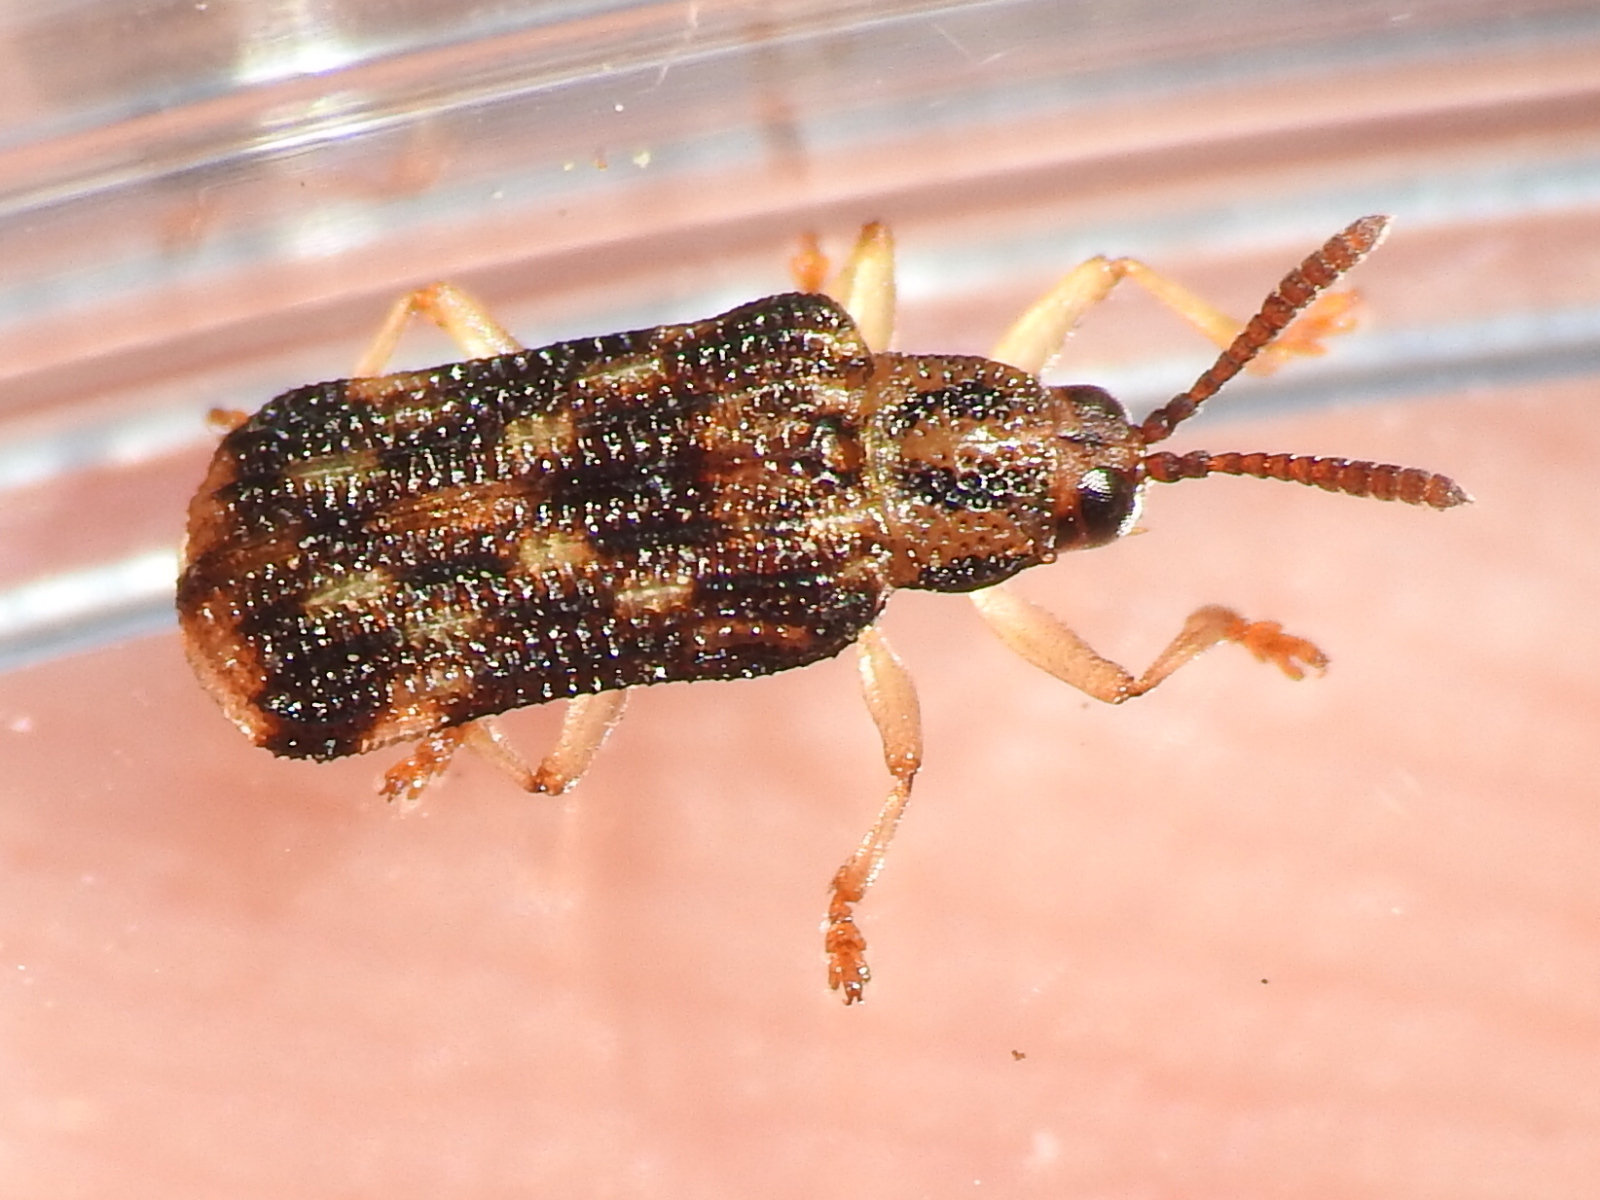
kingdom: Animalia
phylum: Arthropoda
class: Insecta
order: Coleoptera
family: Chrysomelidae
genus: Sumitrosis
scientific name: Sumitrosis inaequalis
